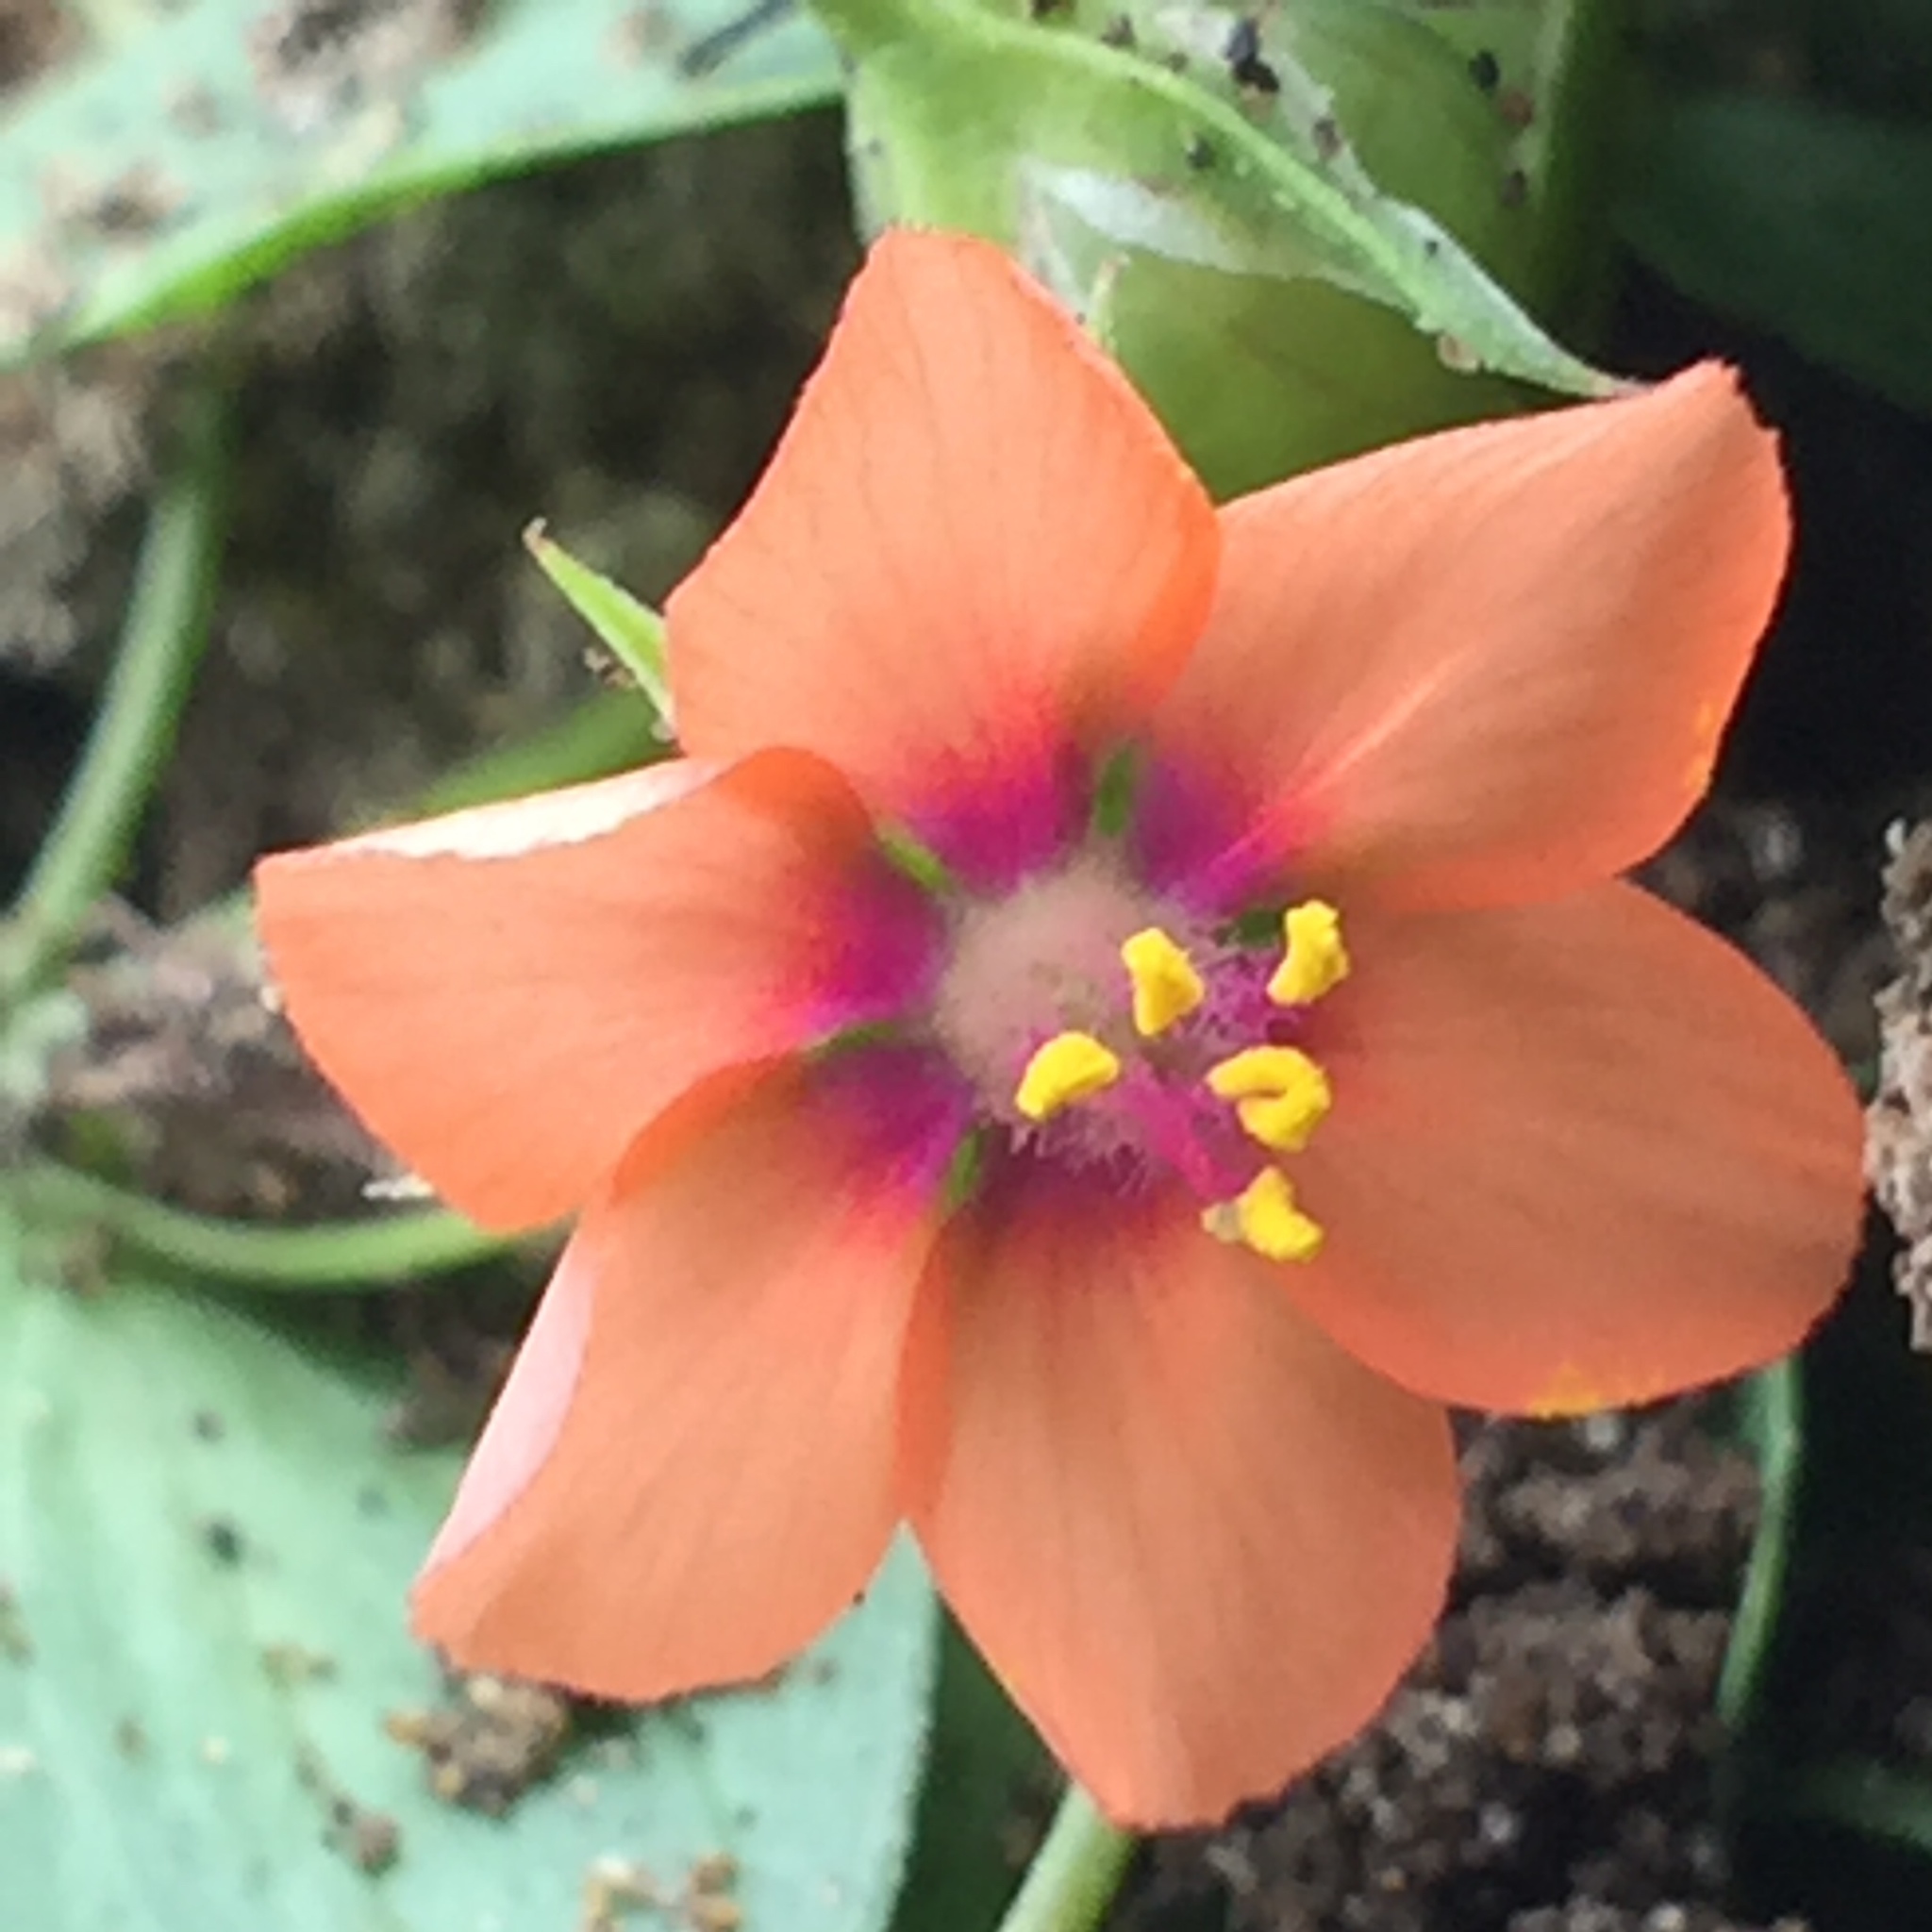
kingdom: Plantae
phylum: Tracheophyta
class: Magnoliopsida
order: Ericales
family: Primulaceae
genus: Lysimachia
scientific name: Lysimachia arvensis
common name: Scarlet pimpernel
